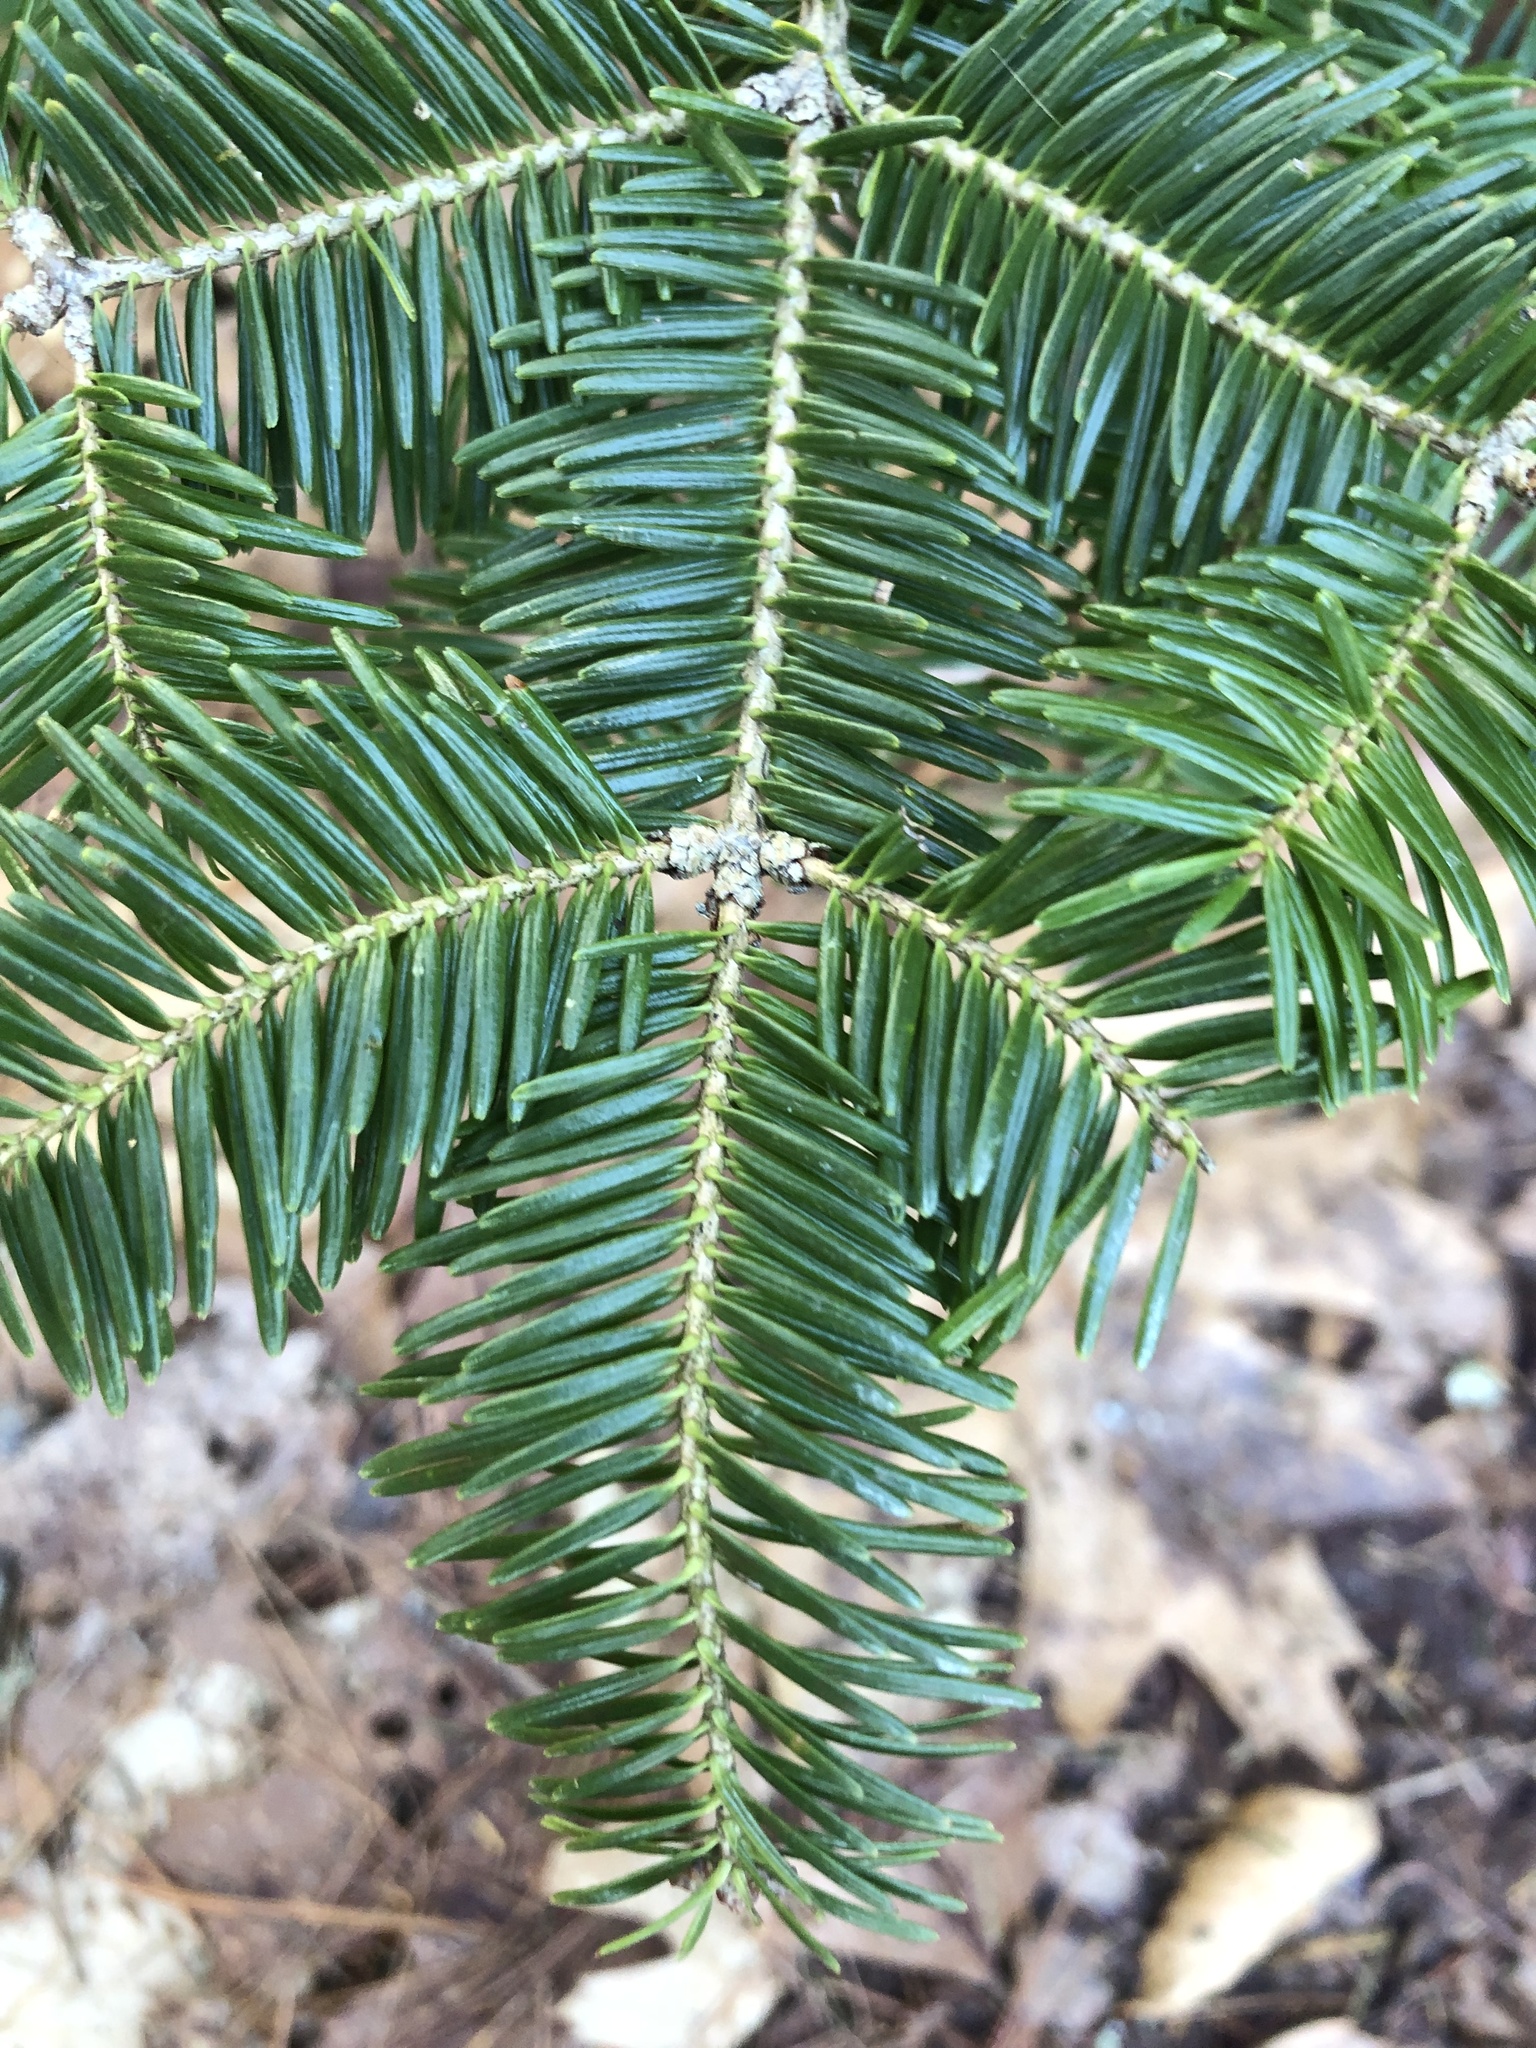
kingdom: Plantae
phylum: Tracheophyta
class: Pinopsida
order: Pinales
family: Pinaceae
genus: Abies
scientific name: Abies balsamea
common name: Balsam fir
